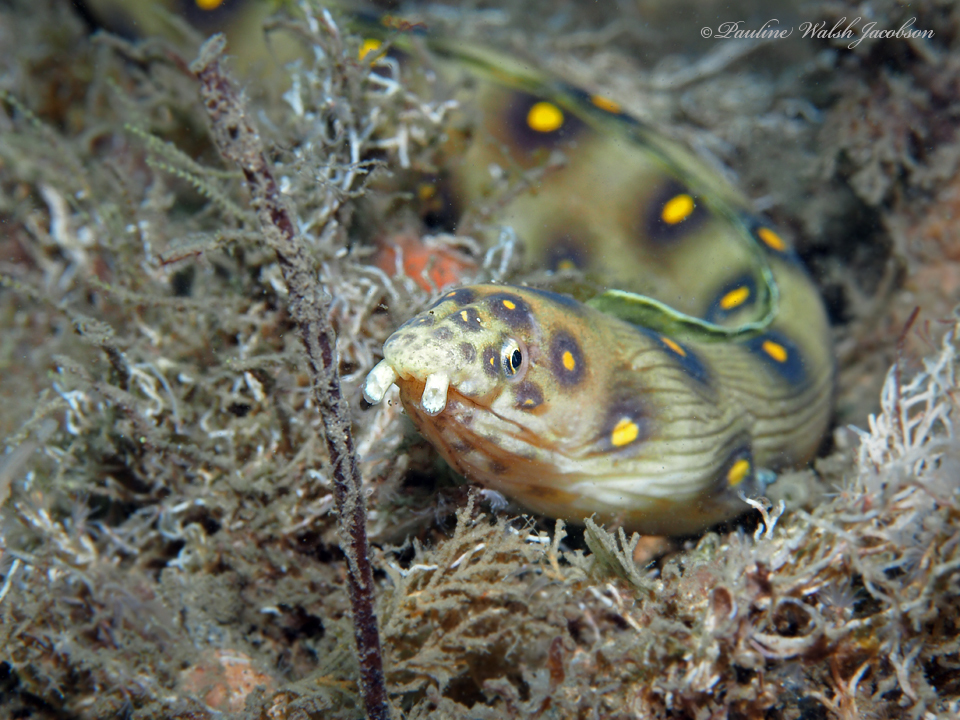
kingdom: Animalia
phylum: Chordata
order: Anguilliformes
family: Ophichthidae
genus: Myrichthys
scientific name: Myrichthys ocellatus
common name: Goldspotted eel
